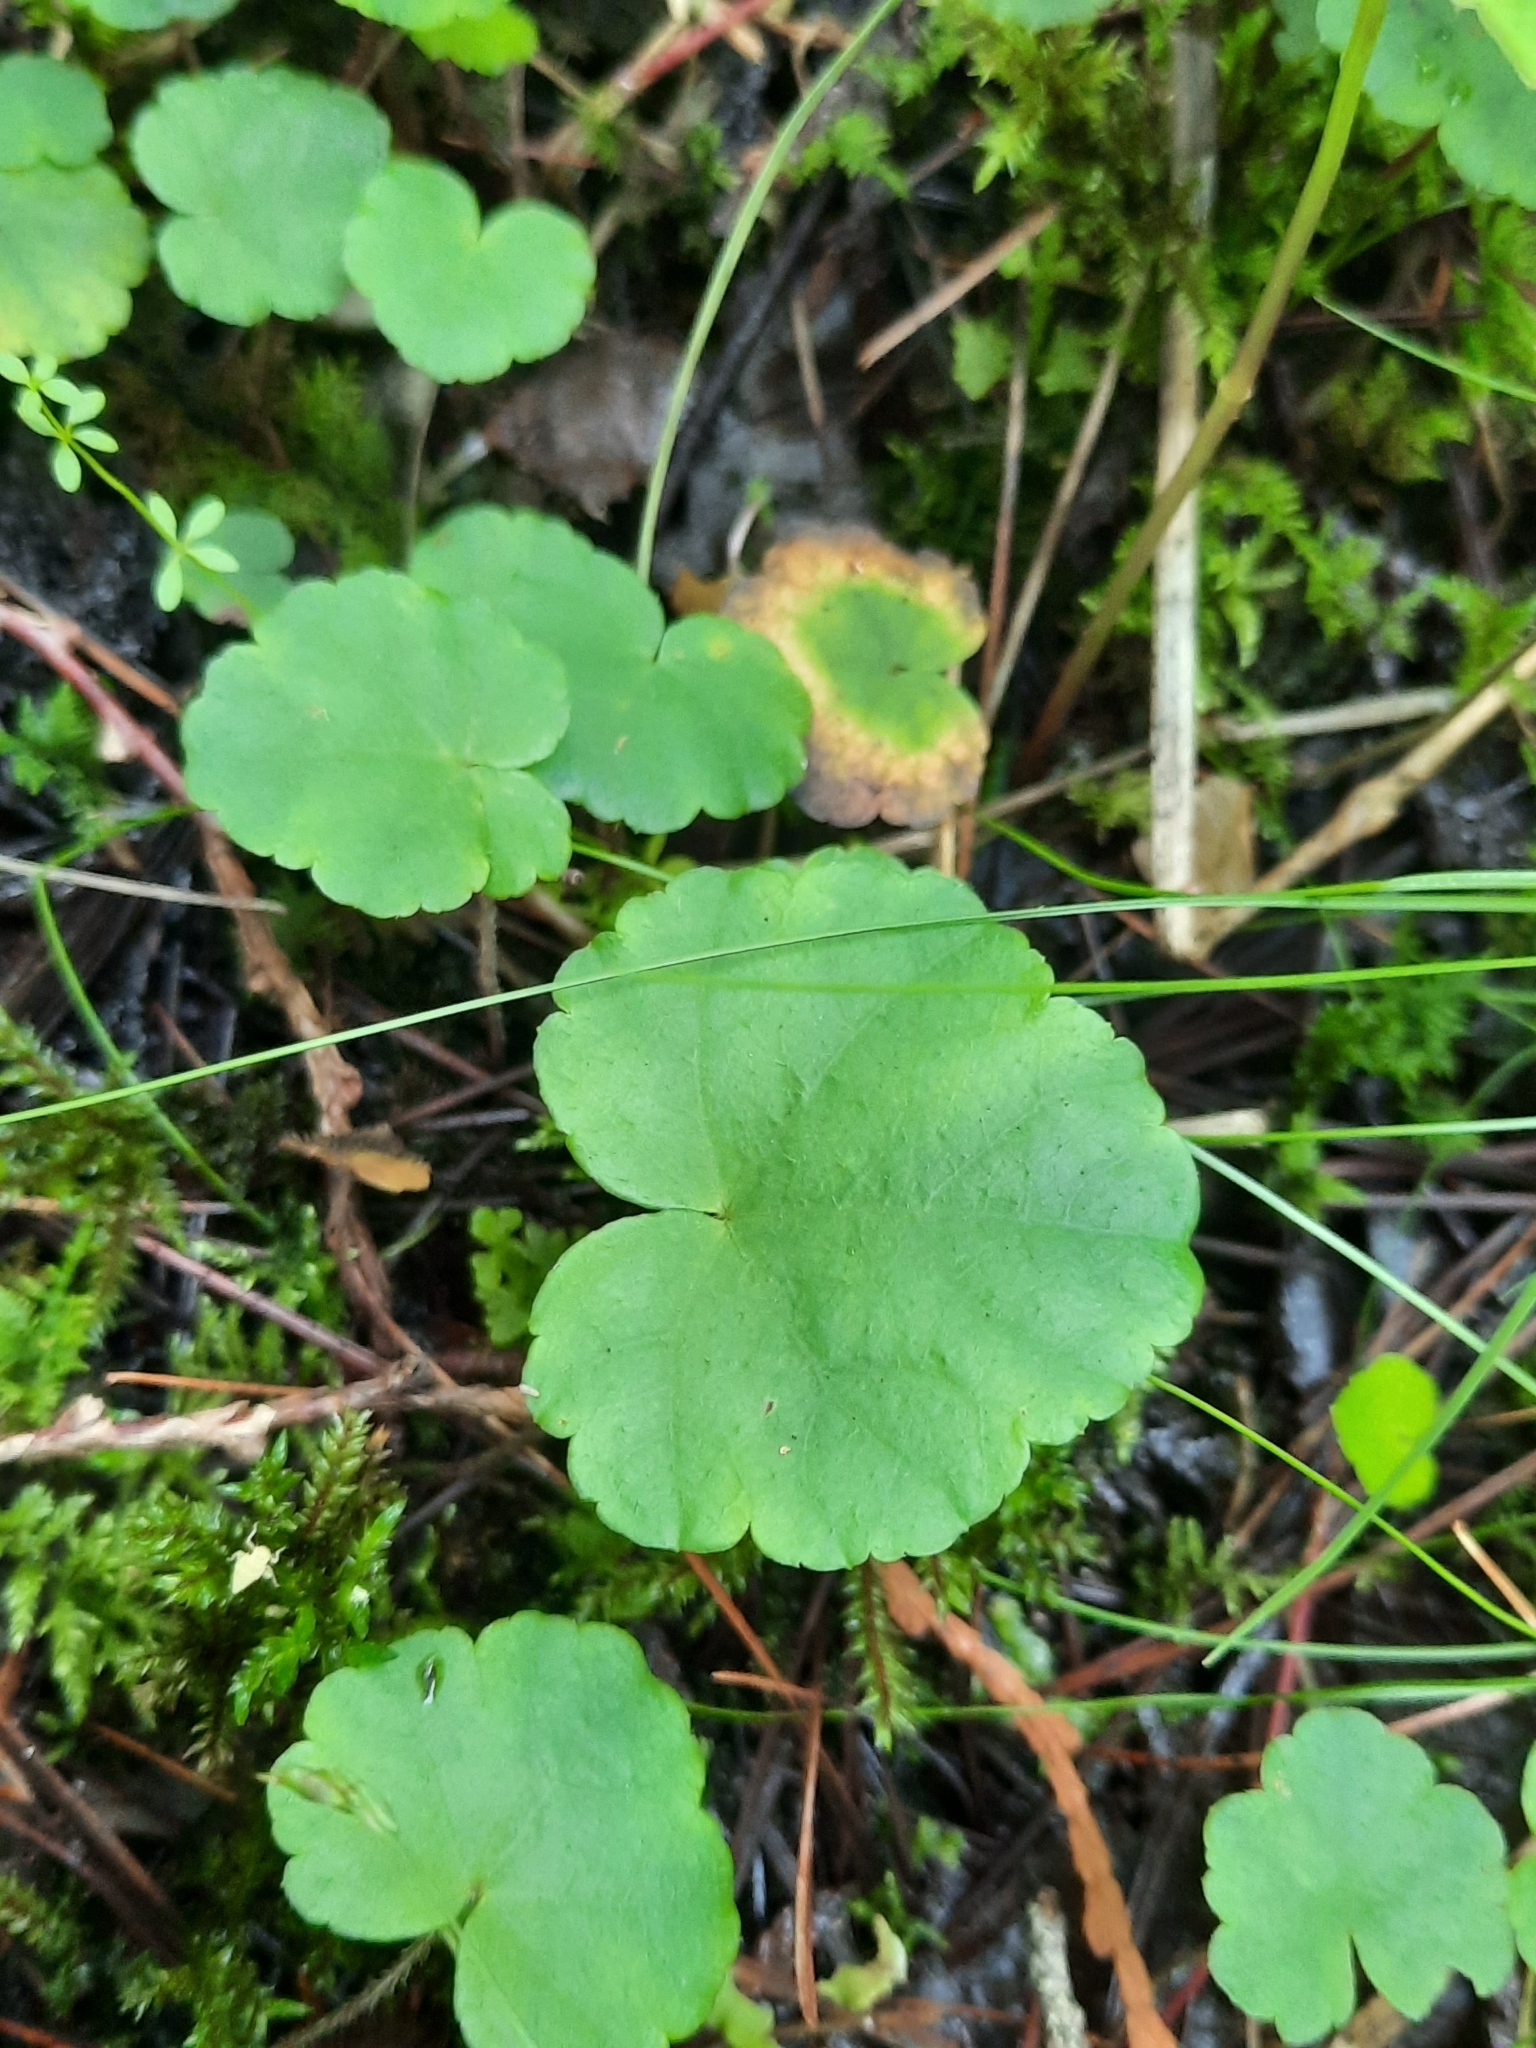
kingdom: Plantae
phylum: Tracheophyta
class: Magnoliopsida
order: Saxifragales
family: Saxifragaceae
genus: Mitella
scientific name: Mitella nuda
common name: Bare-stemmed bishop's-cap
